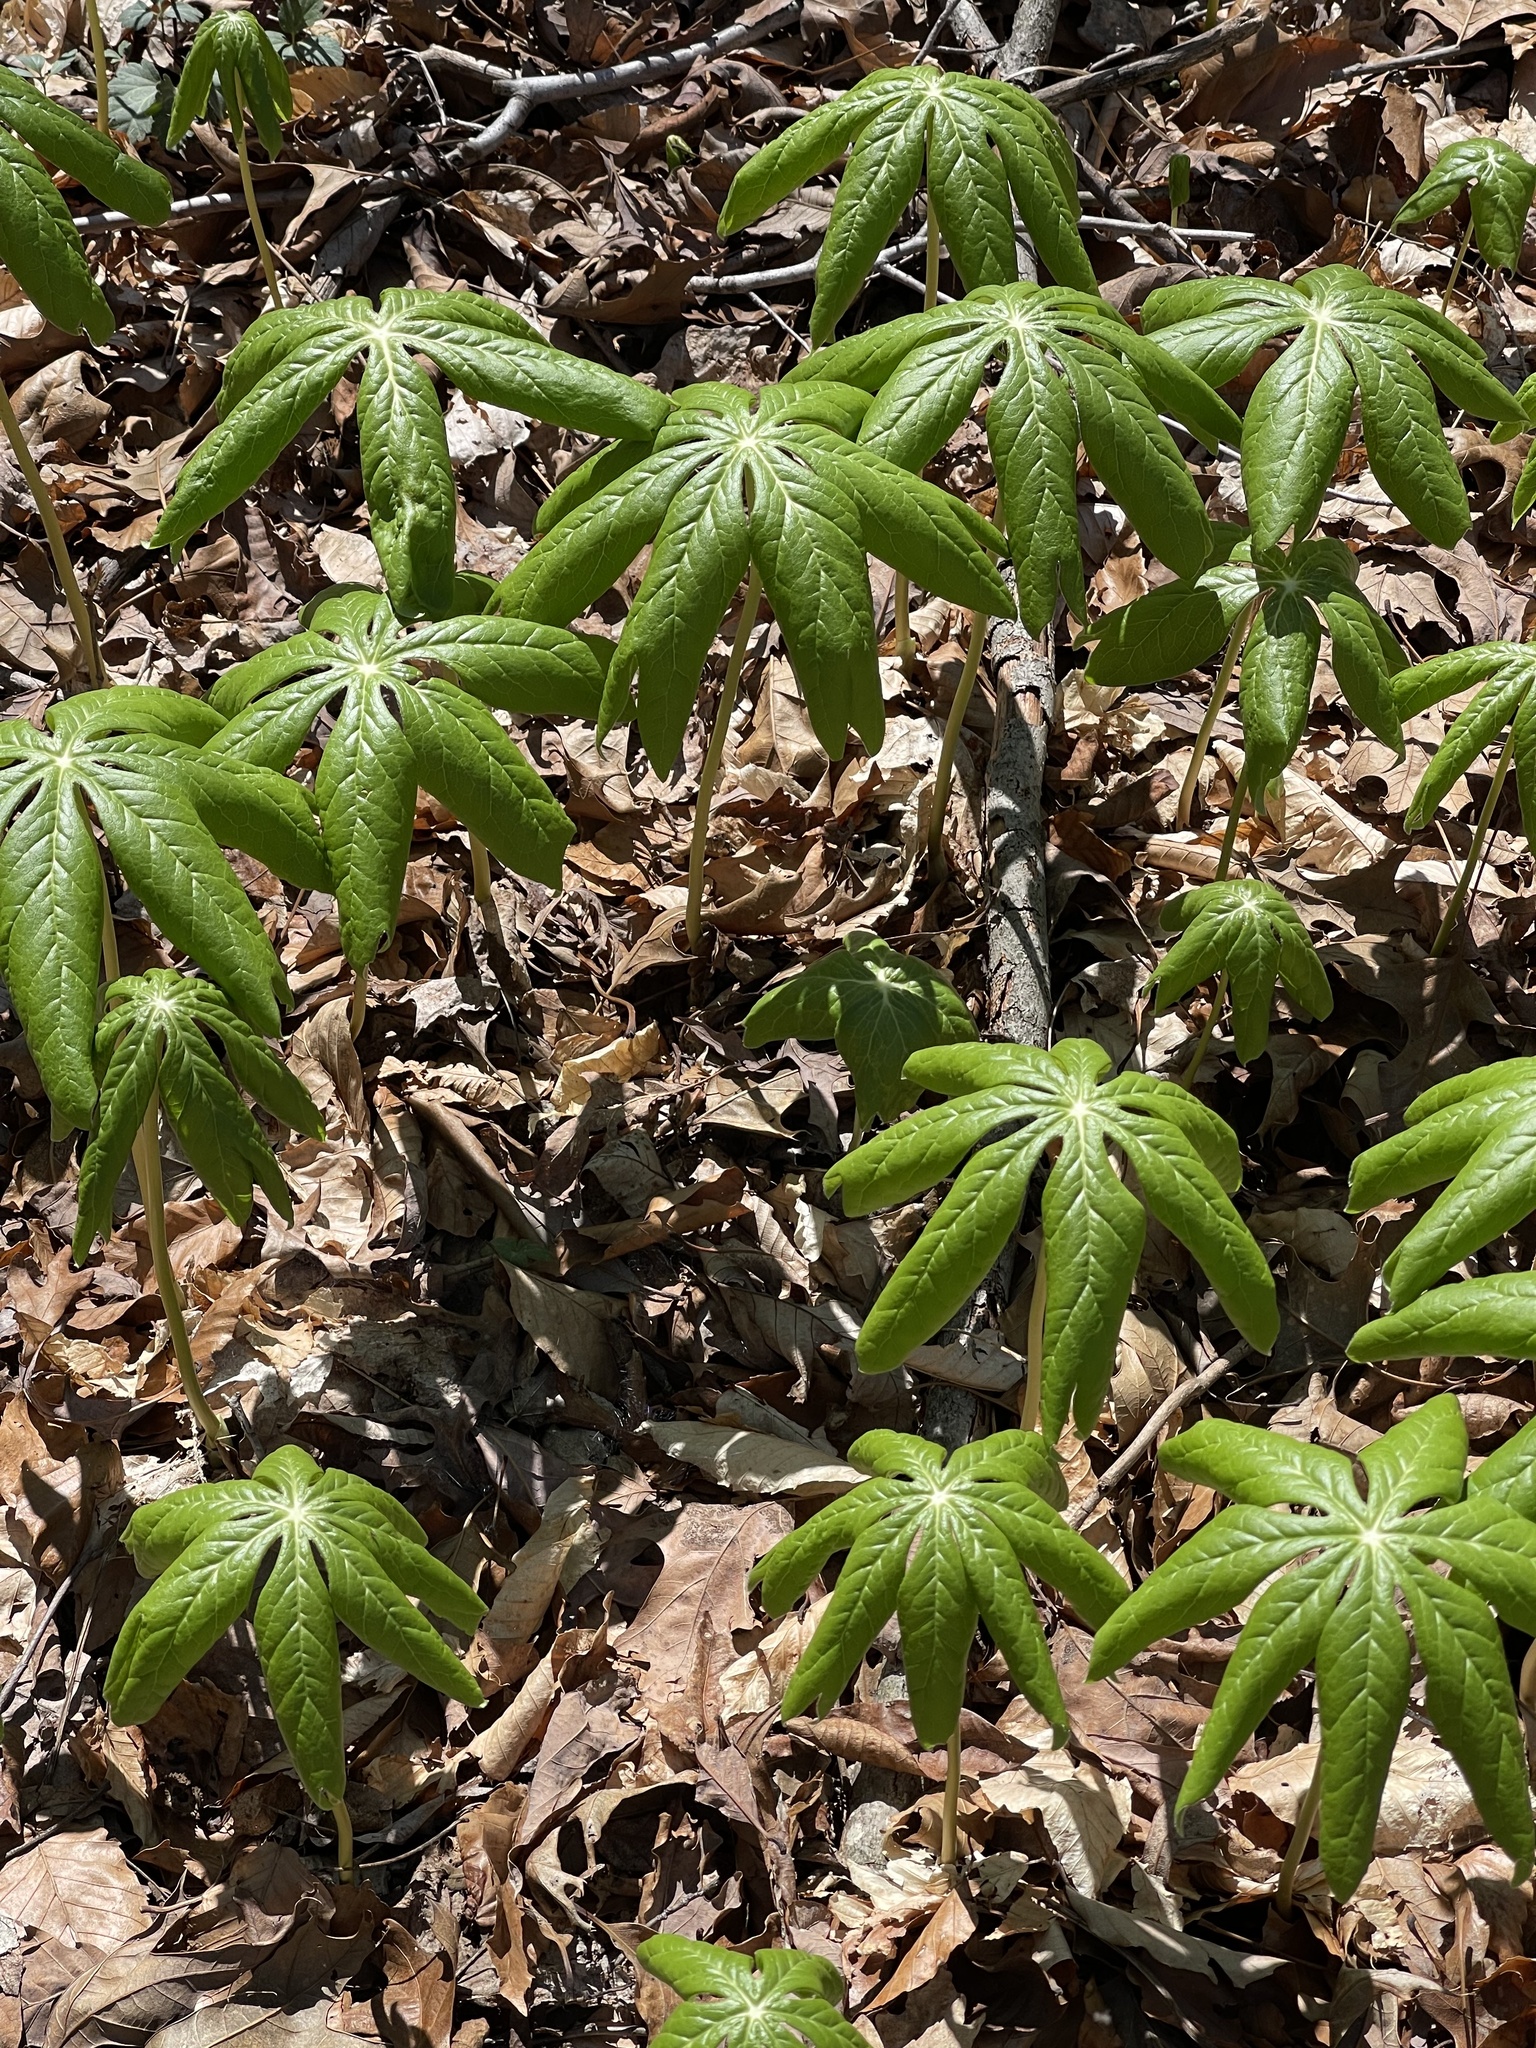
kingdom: Plantae
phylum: Tracheophyta
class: Magnoliopsida
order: Ranunculales
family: Berberidaceae
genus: Podophyllum
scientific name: Podophyllum peltatum
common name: Wild mandrake
